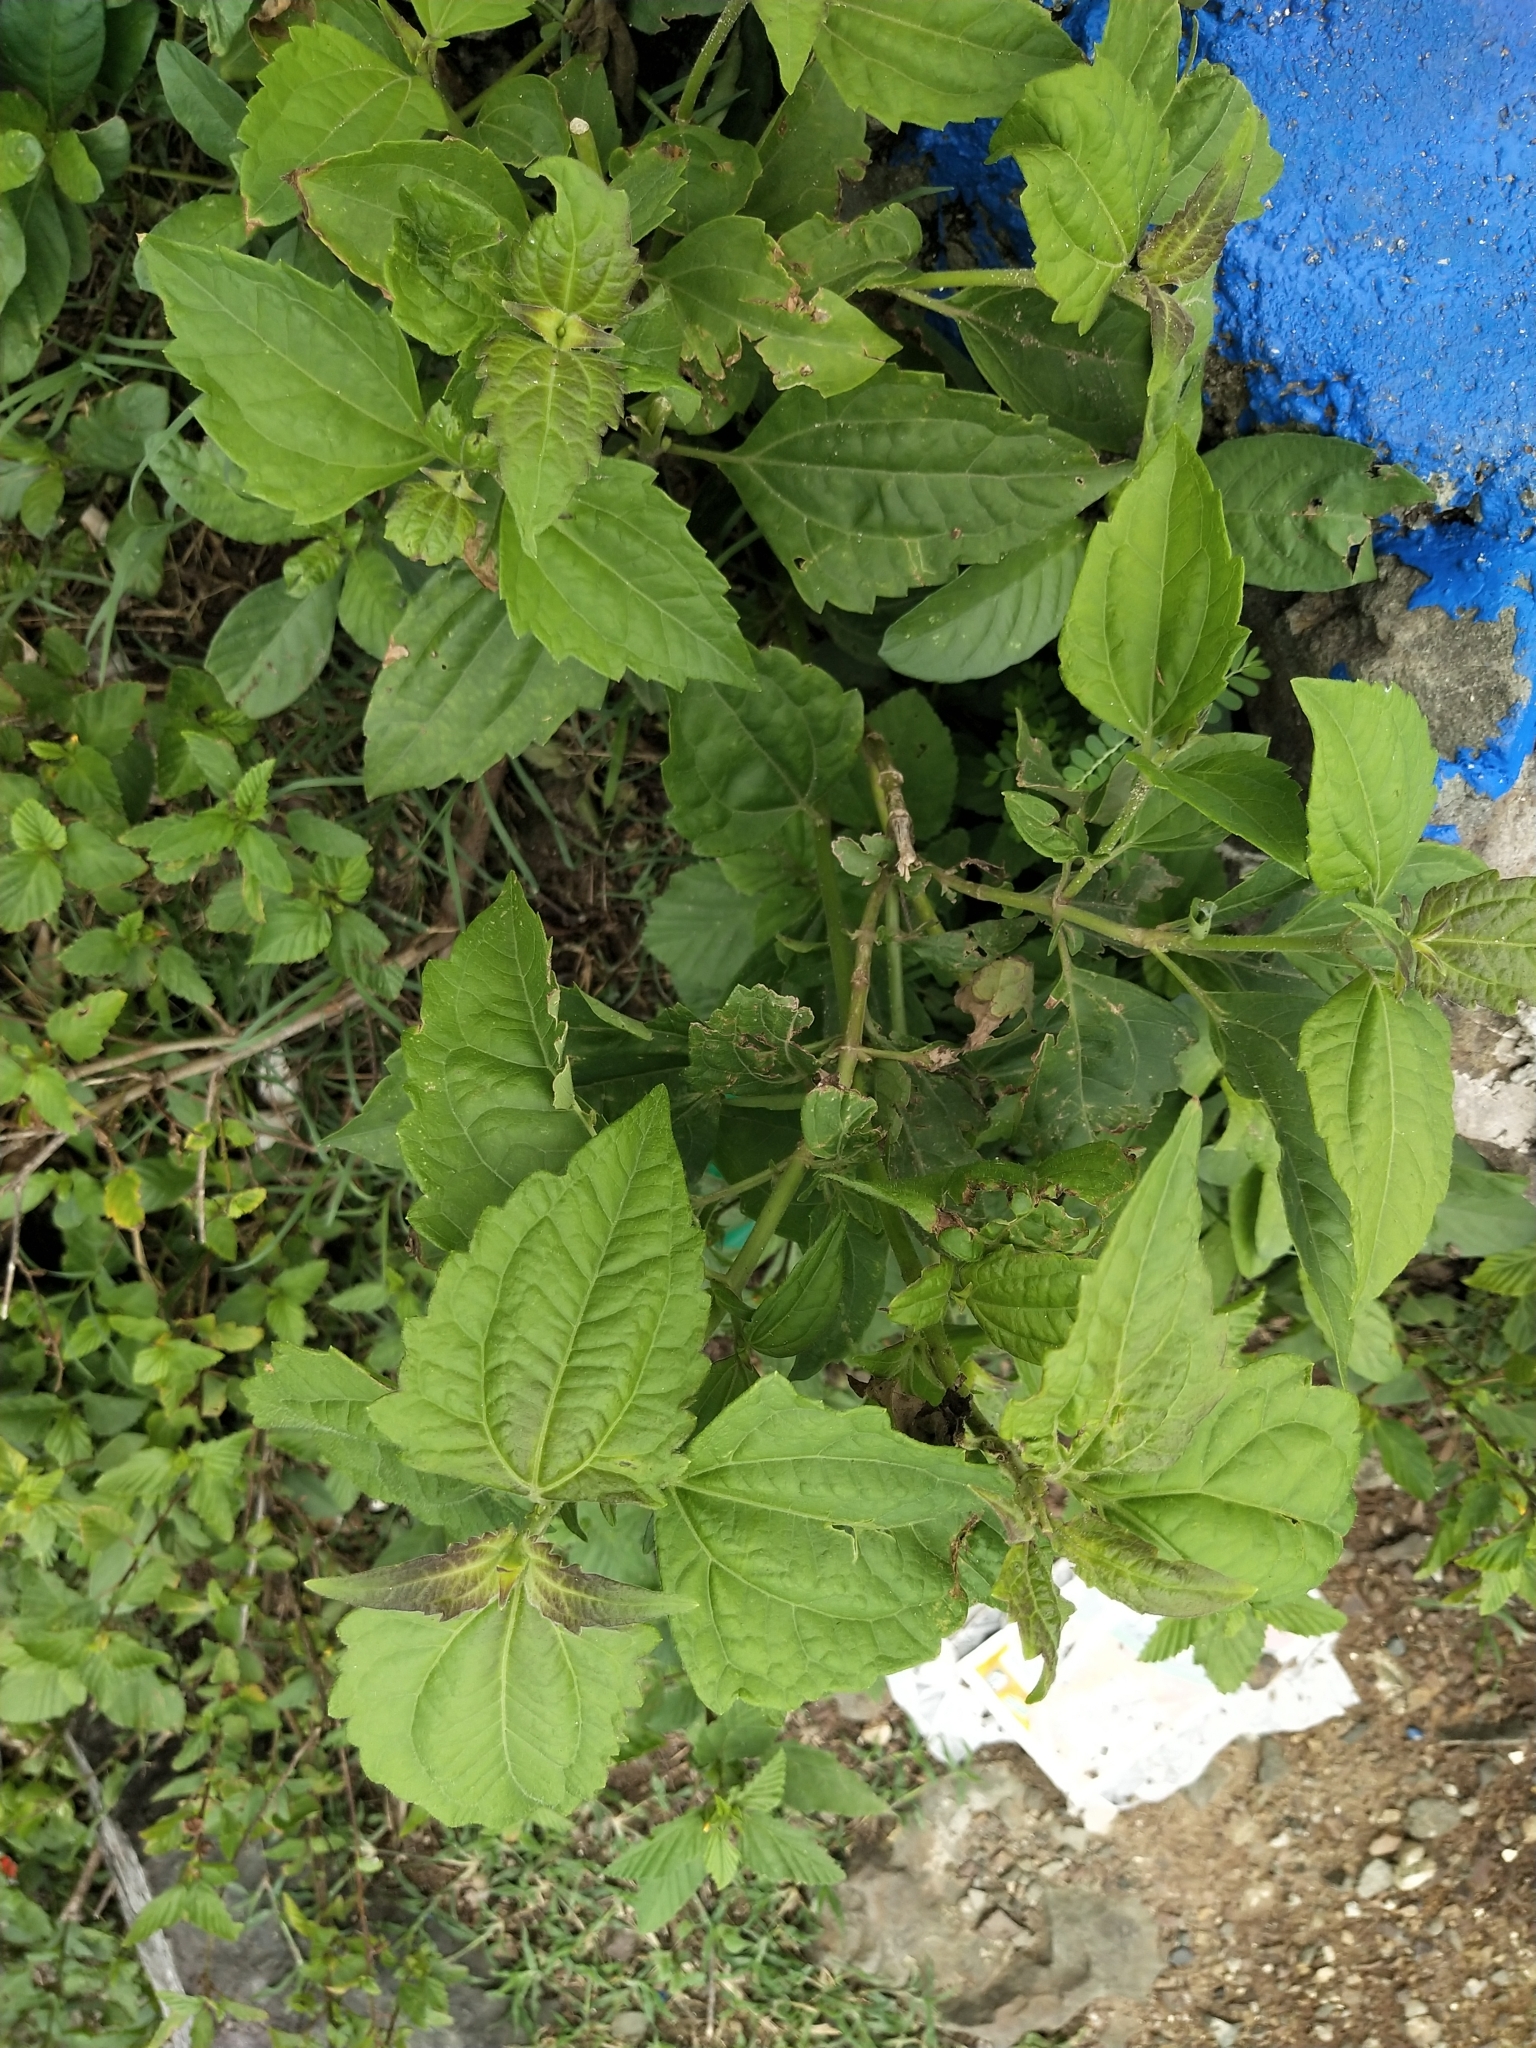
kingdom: Plantae
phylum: Tracheophyta
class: Magnoliopsida
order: Asterales
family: Asteraceae
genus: Chromolaena
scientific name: Chromolaena odorata
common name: Siamweed
